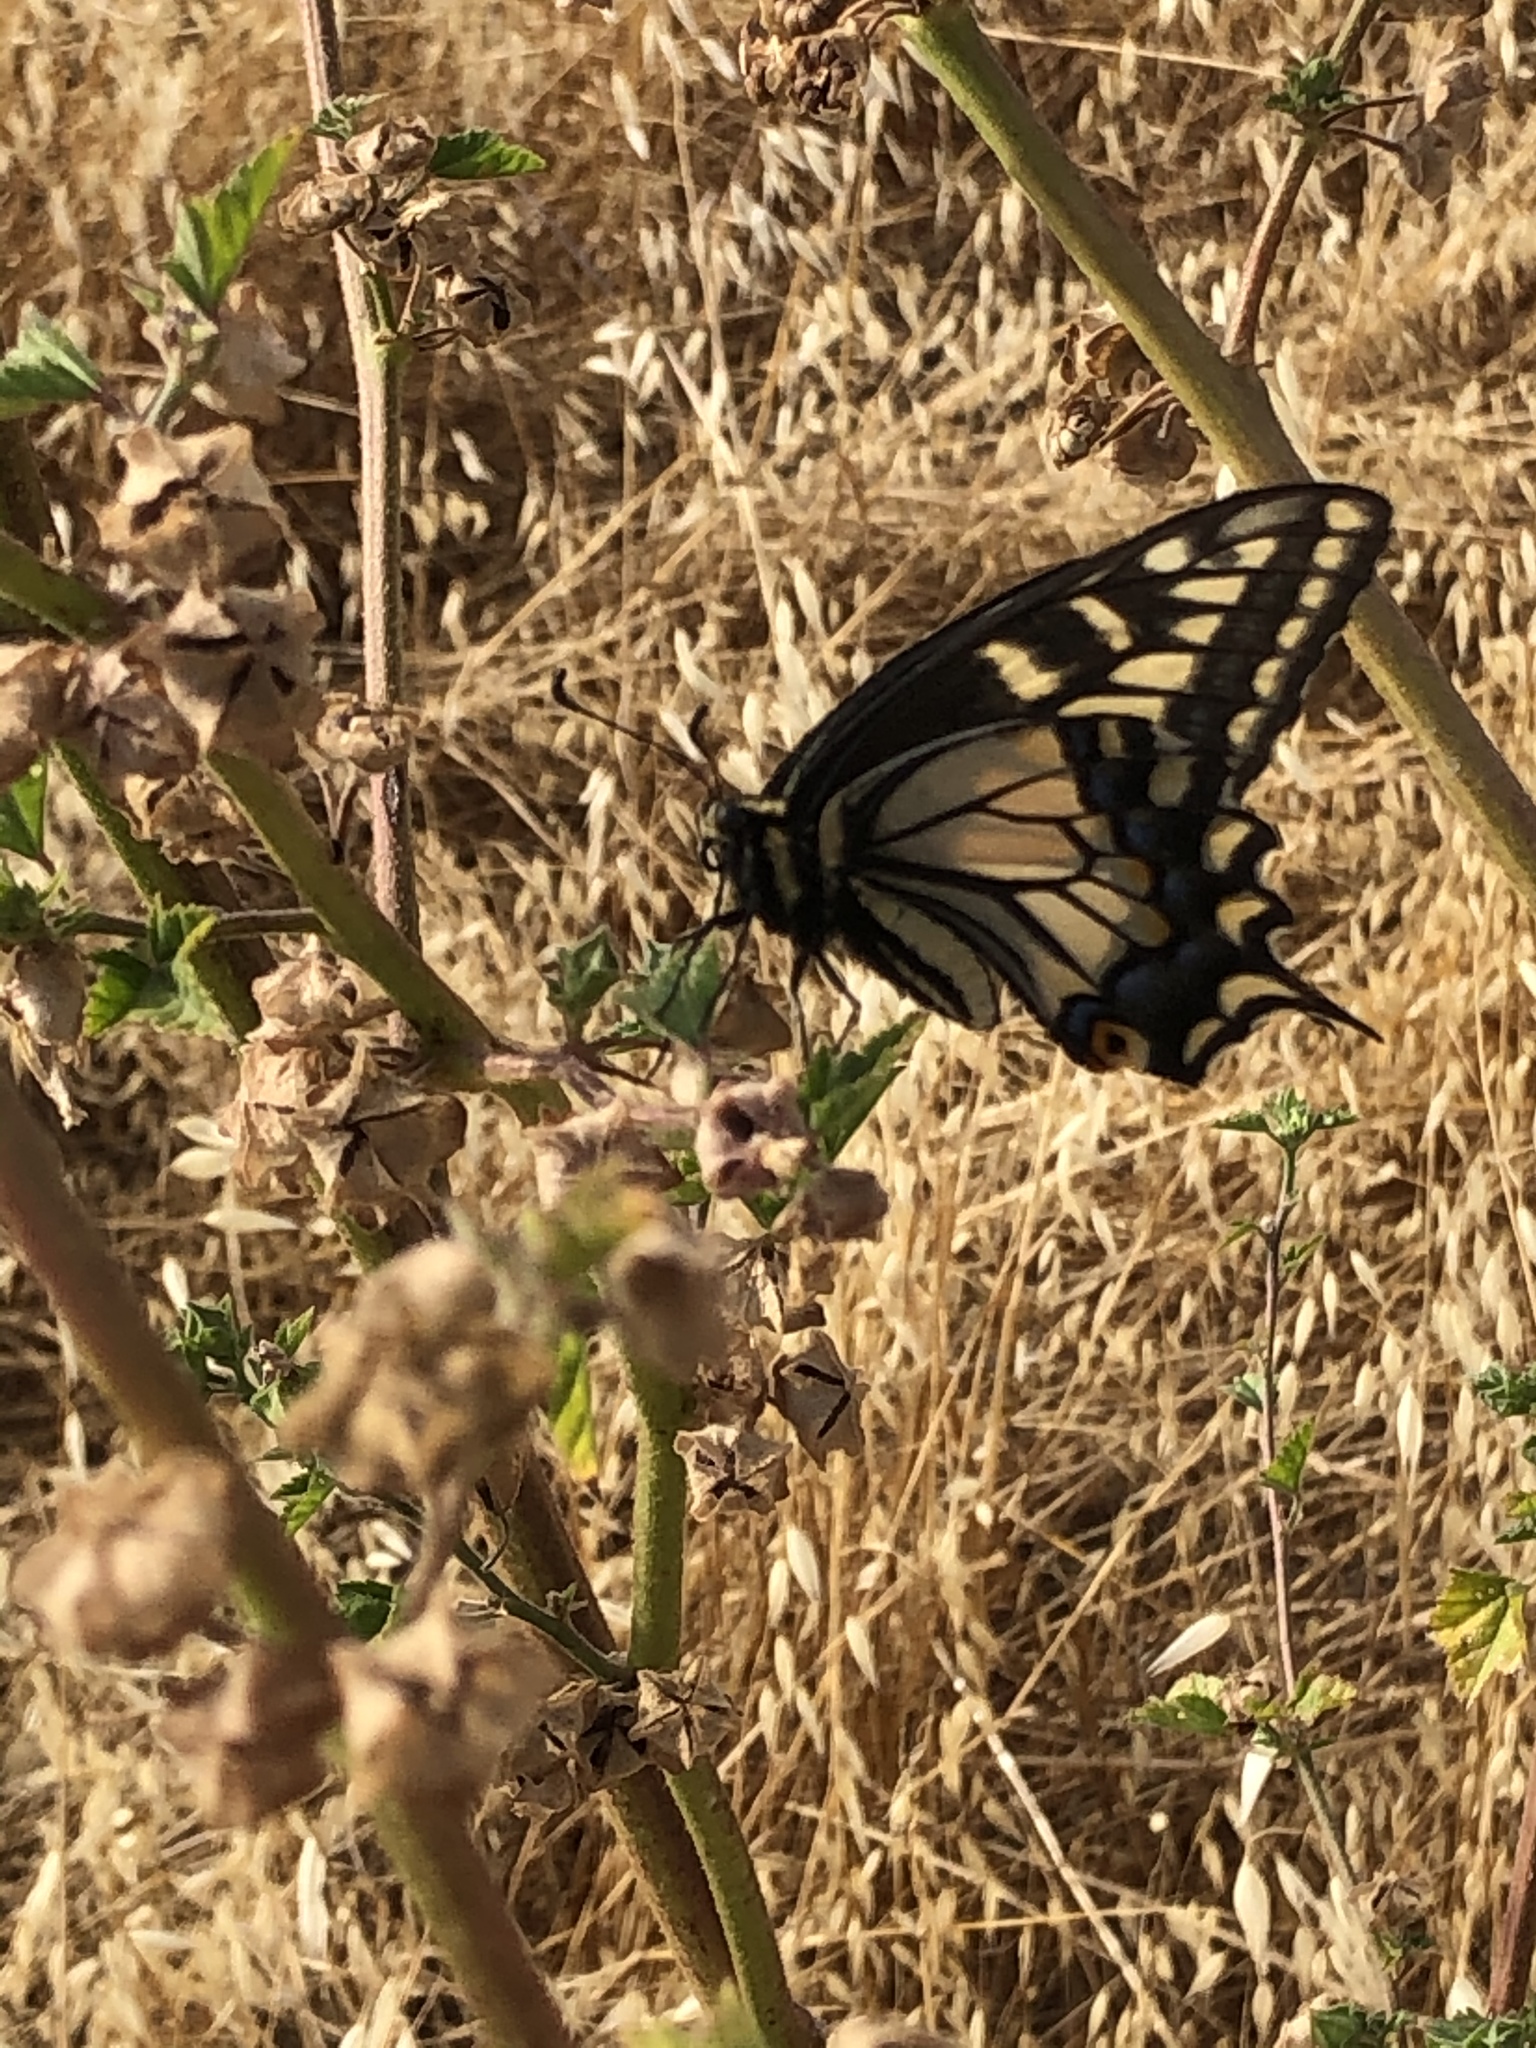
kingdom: Animalia
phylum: Arthropoda
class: Insecta
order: Lepidoptera
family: Papilionidae
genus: Papilio
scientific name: Papilio zelicaon
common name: Anise swallowtail
